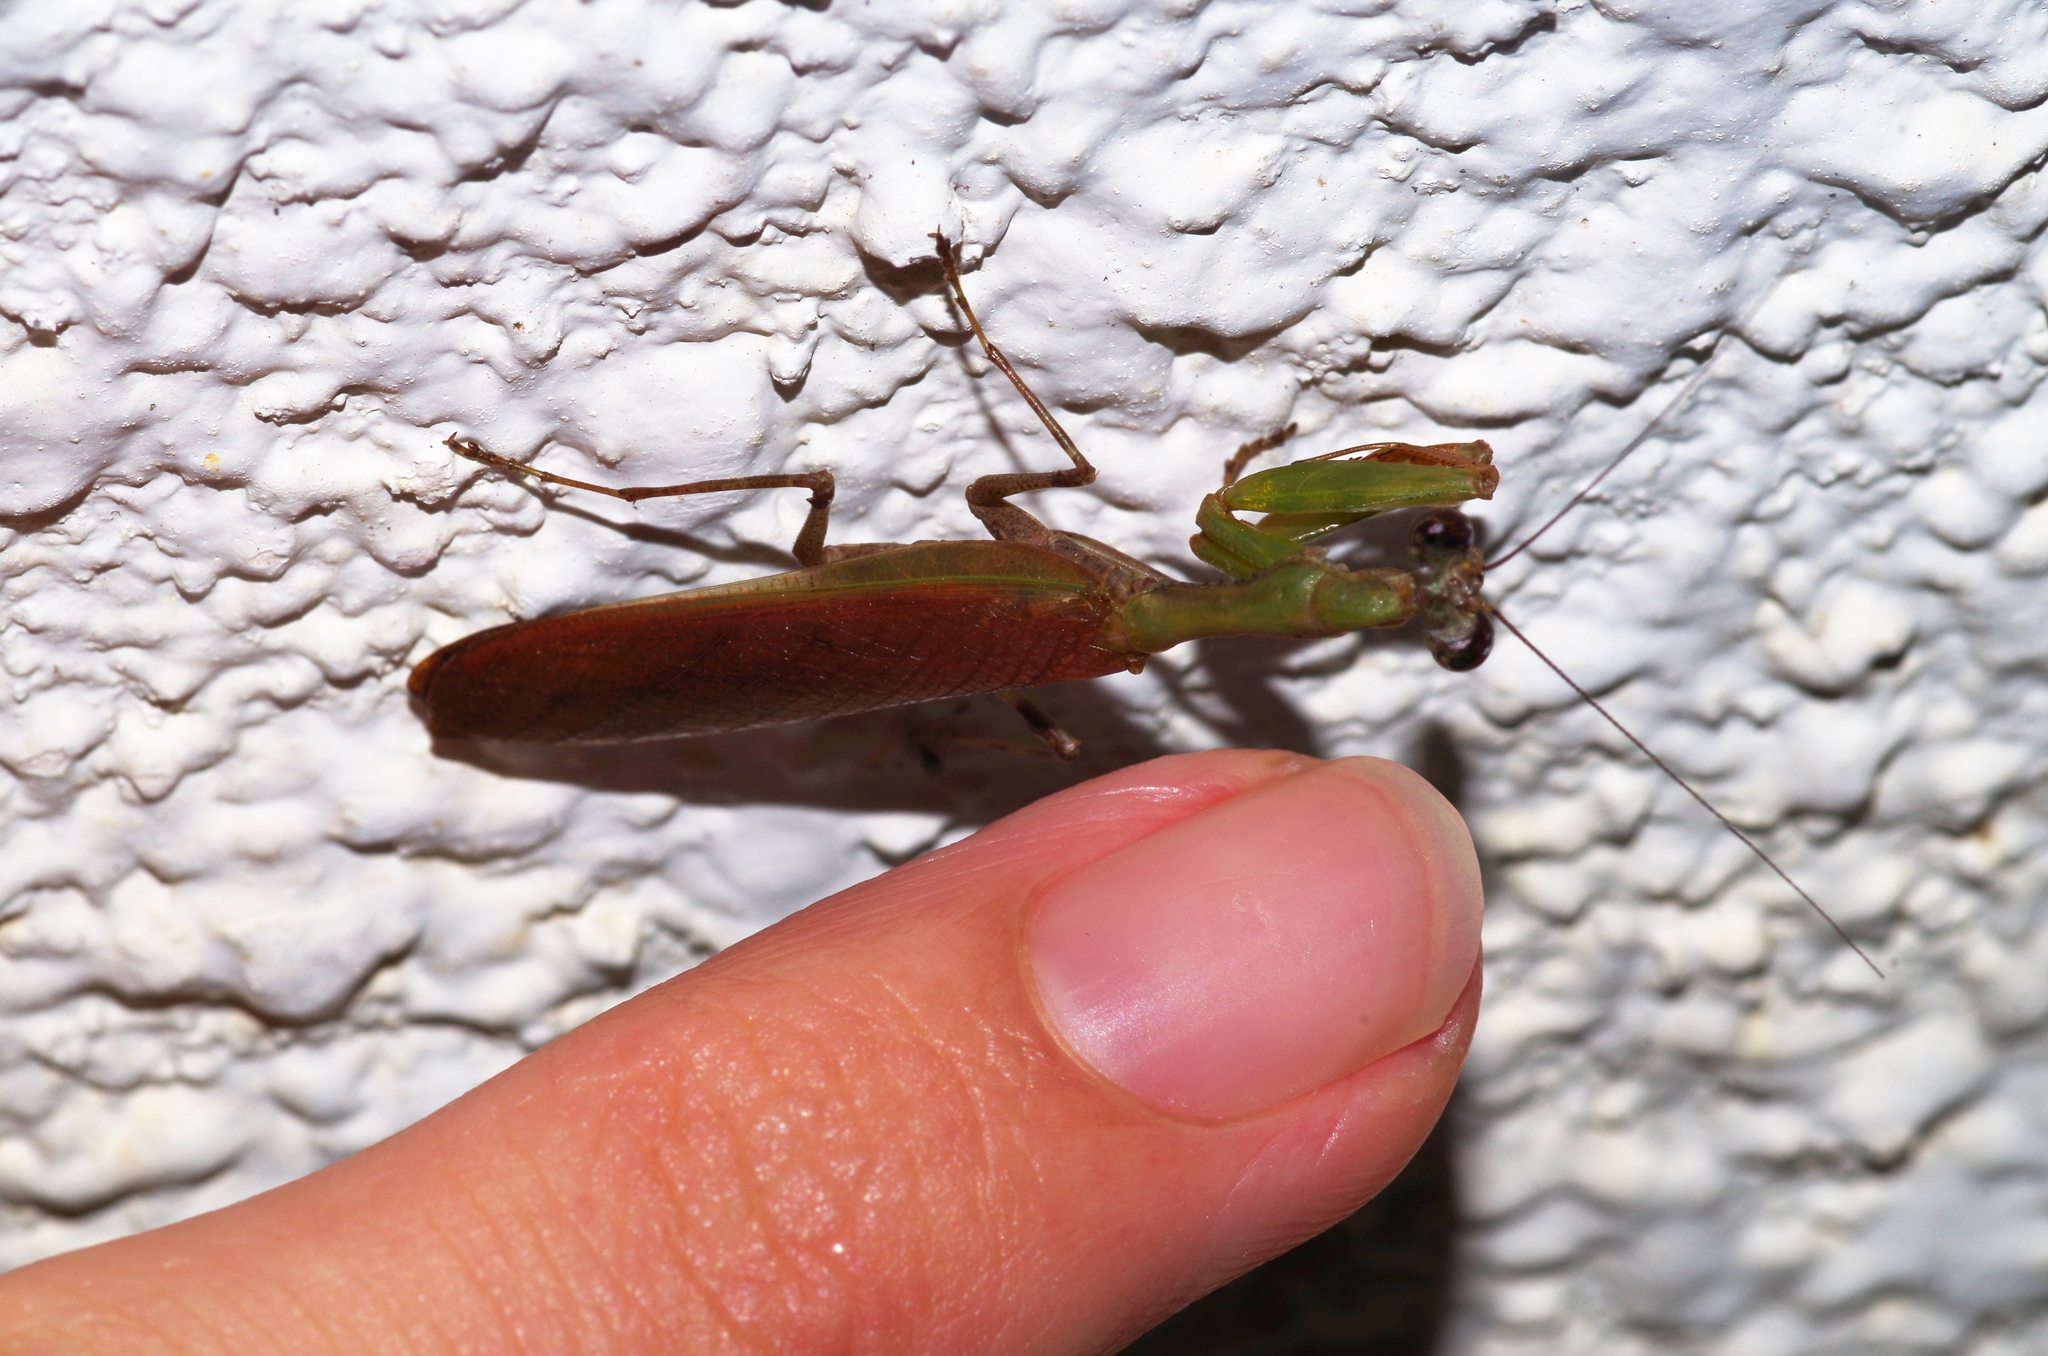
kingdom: Animalia
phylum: Arthropoda
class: Insecta
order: Mantodea
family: Hymenopodidae
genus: Acromantis
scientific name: Acromantis satsumensis
